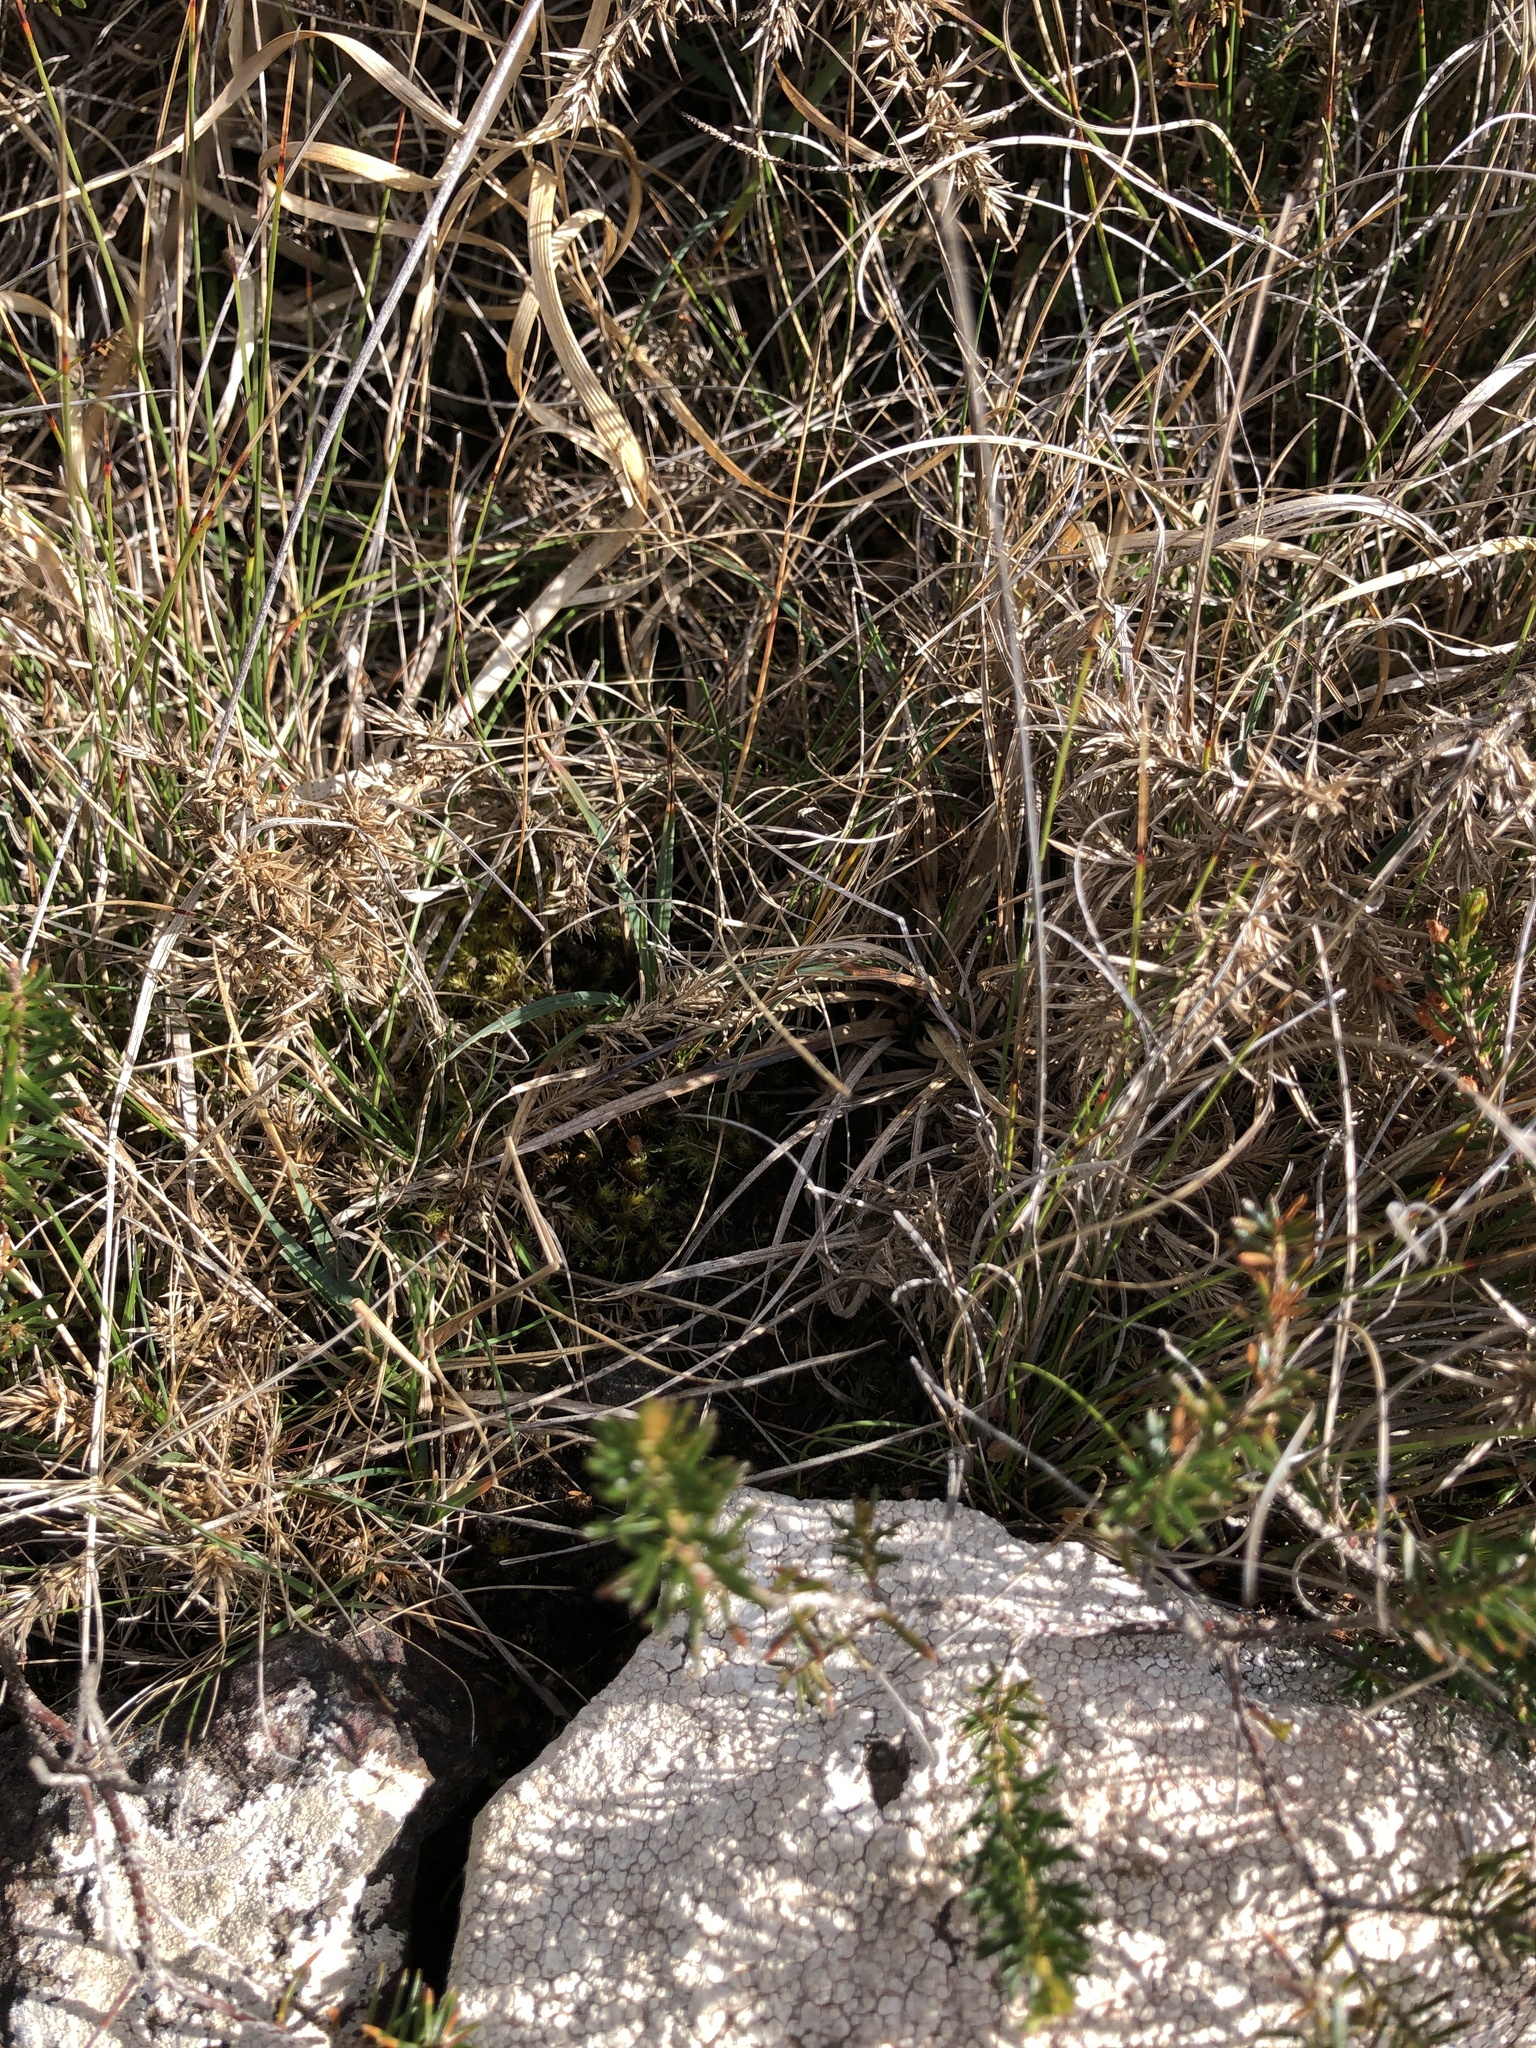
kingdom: Plantae
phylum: Bryophyta
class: Bryopsida
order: Hypnales
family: Amblystegiaceae
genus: Campylium
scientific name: Campylium stellatum
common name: Yellow starry fen moss
